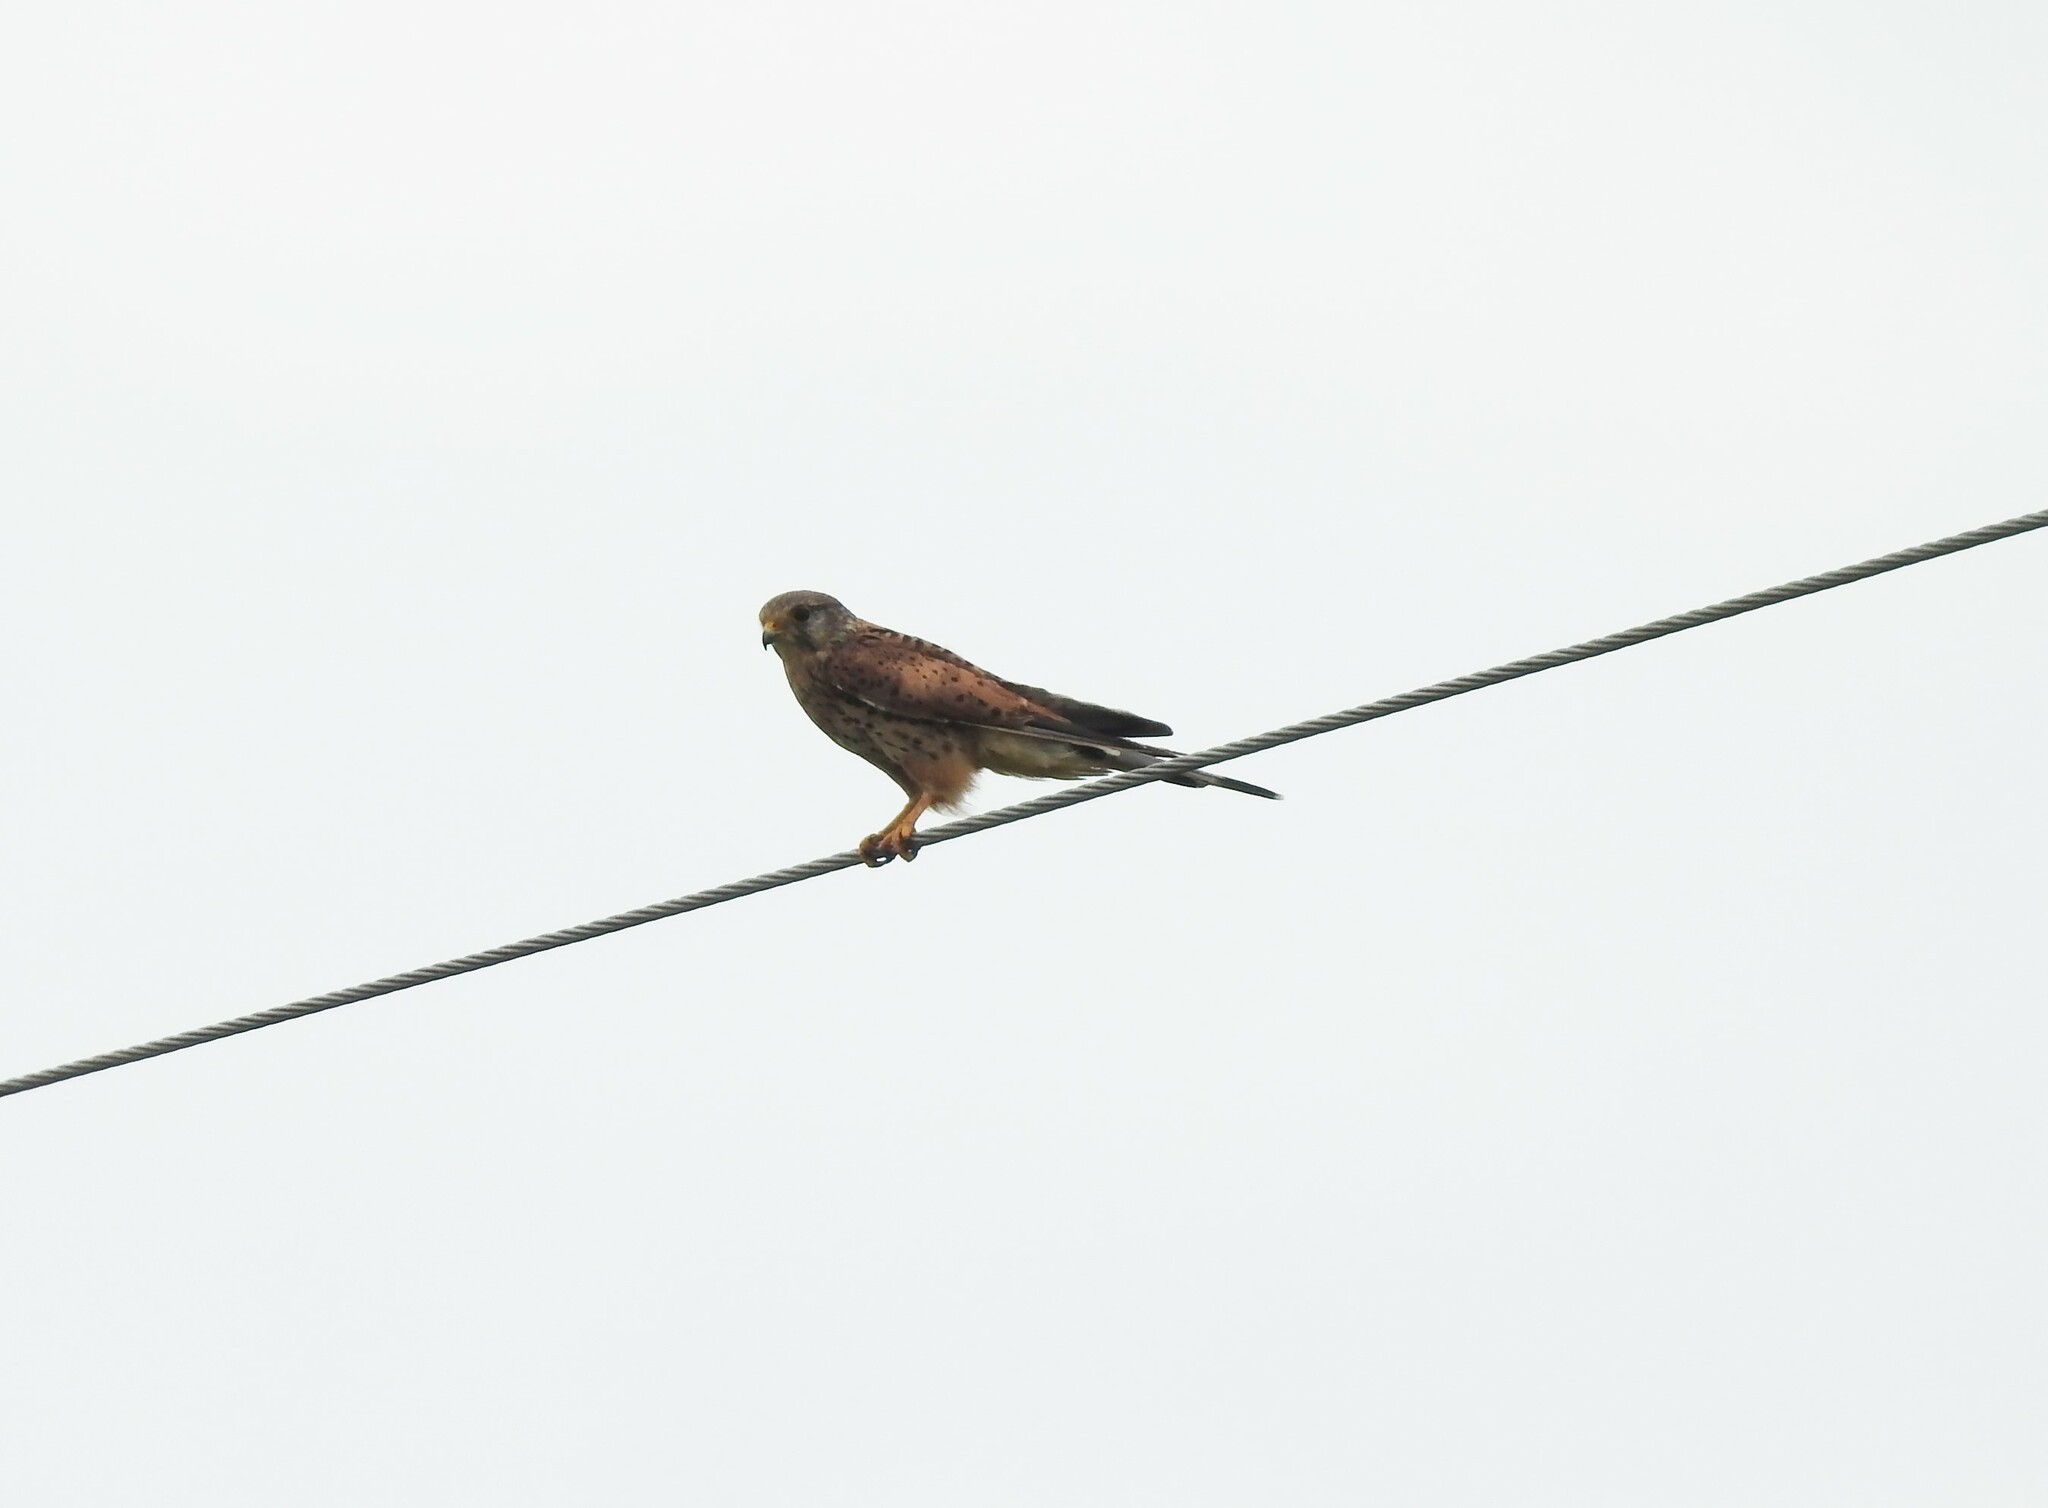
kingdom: Animalia
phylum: Chordata
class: Aves
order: Falconiformes
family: Falconidae
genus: Falco
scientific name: Falco tinnunculus
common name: Common kestrel
